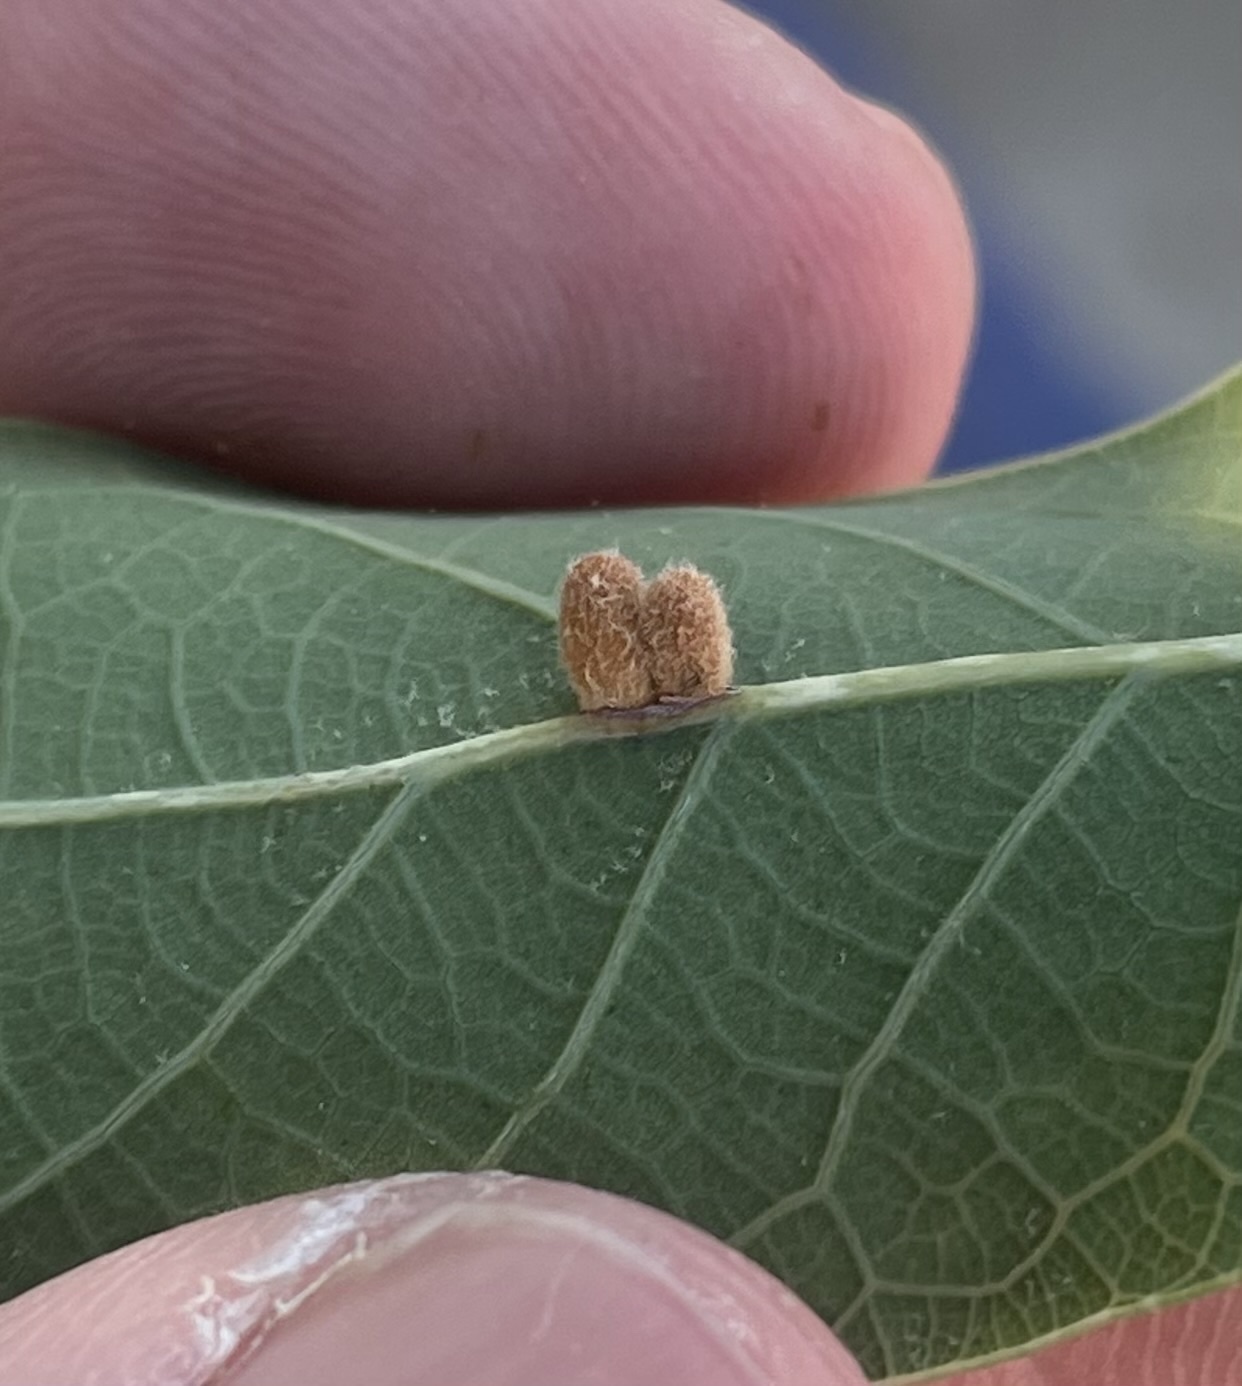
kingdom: Animalia
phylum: Arthropoda
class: Insecta
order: Hymenoptera
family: Cynipidae
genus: Andricus
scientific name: Andricus Druon laceyi
